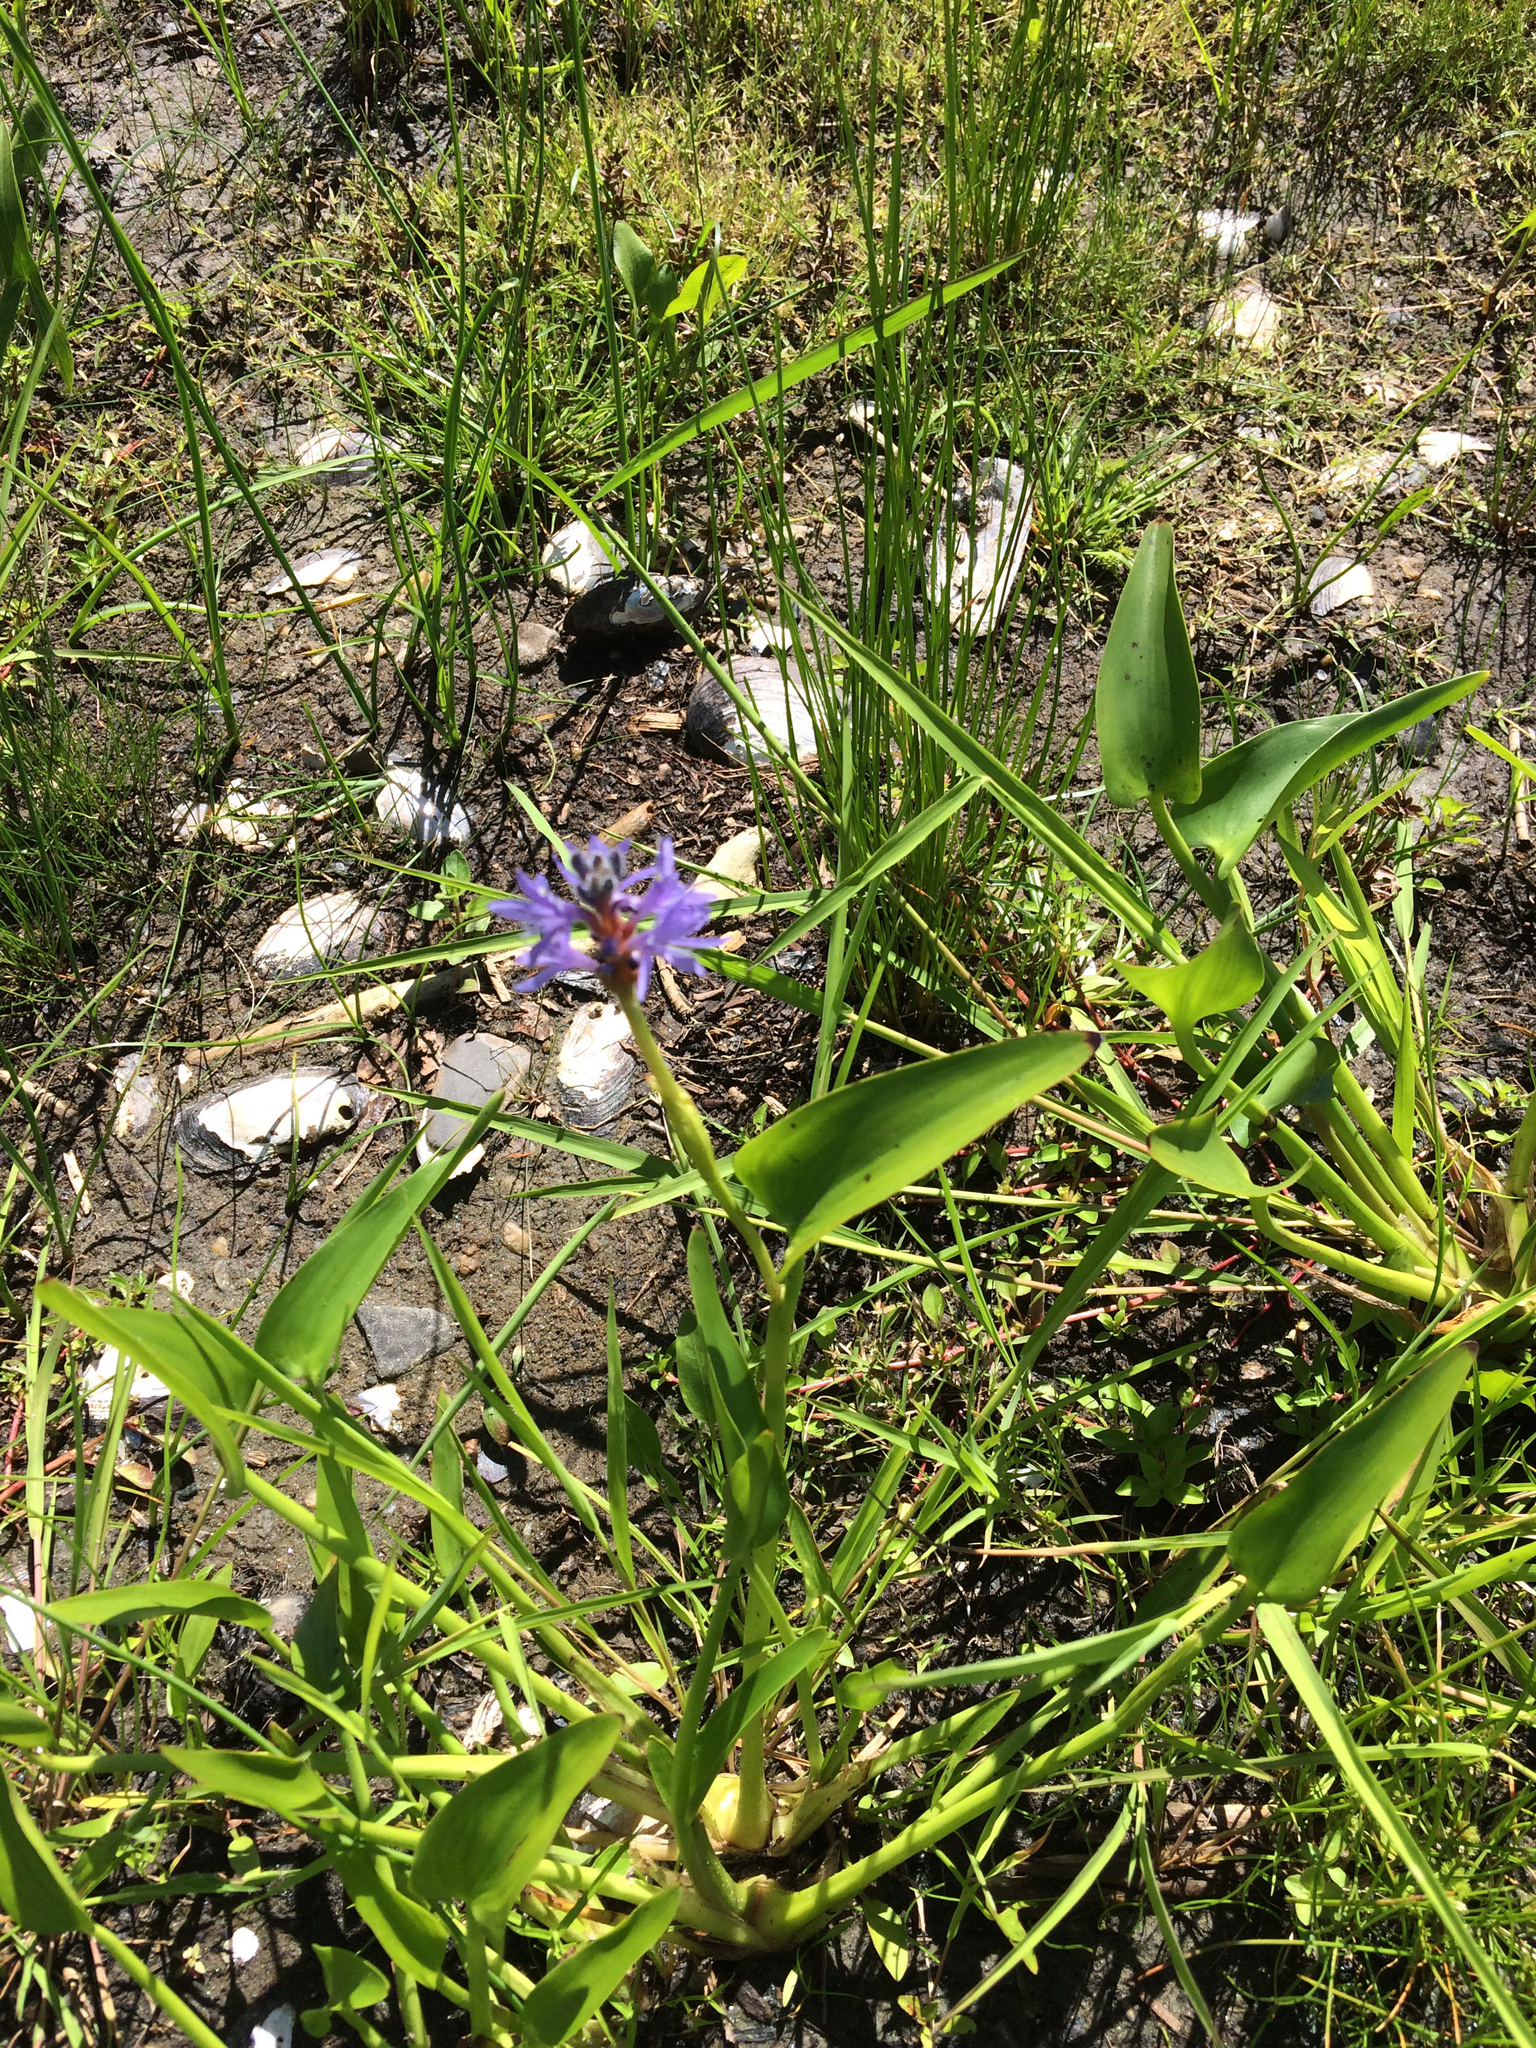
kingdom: Plantae
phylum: Tracheophyta
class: Liliopsida
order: Commelinales
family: Pontederiaceae
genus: Pontederia
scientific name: Pontederia cordata
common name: Pickerelweed
